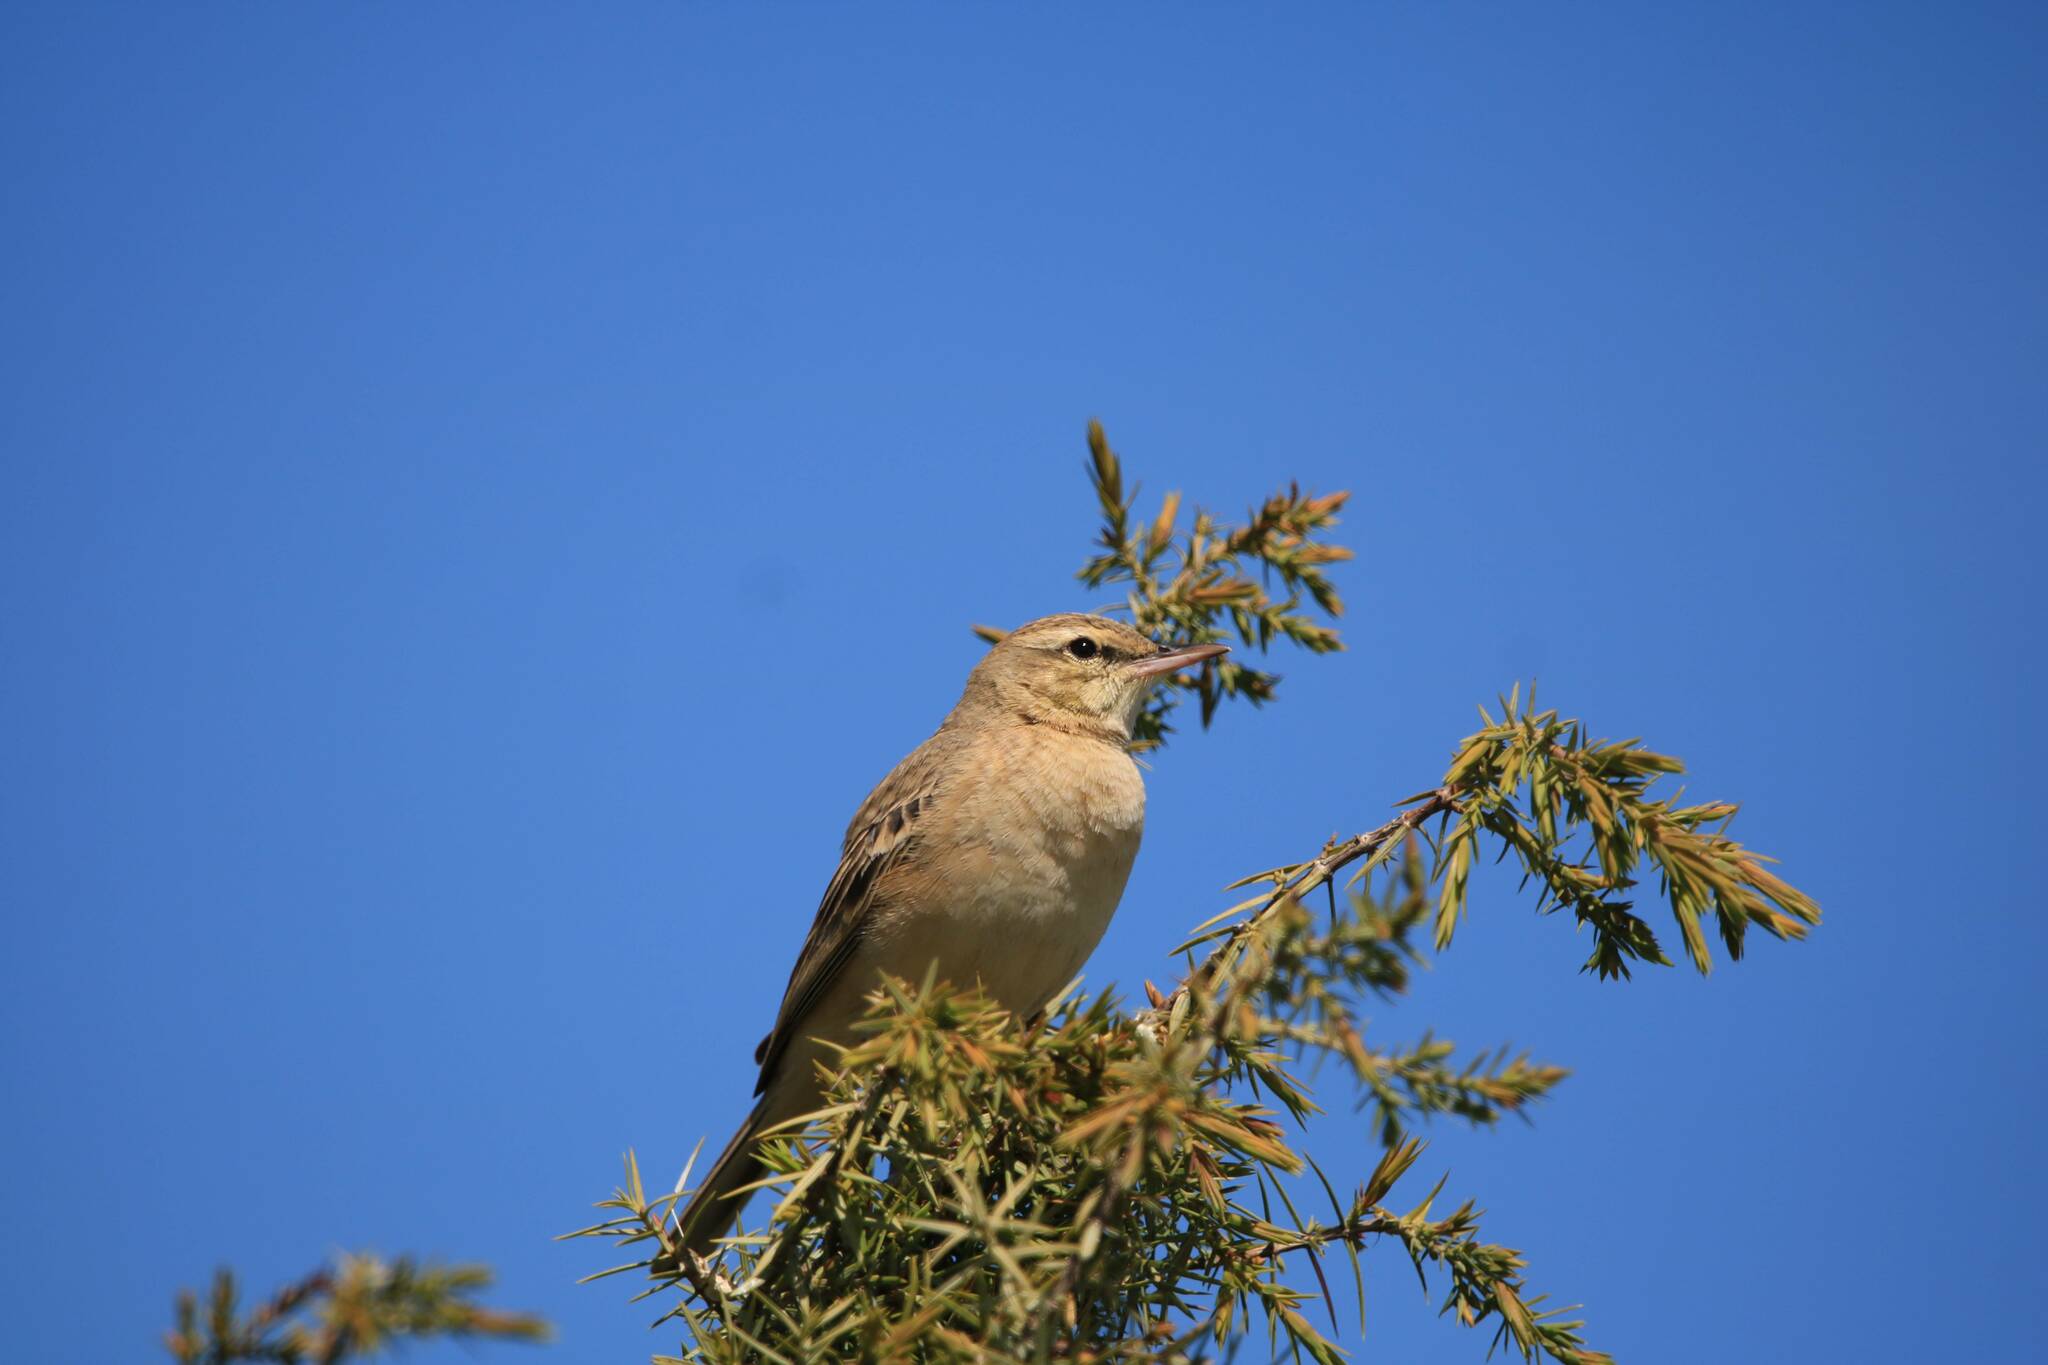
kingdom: Animalia
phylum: Chordata
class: Aves
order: Passeriformes
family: Motacillidae
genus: Anthus
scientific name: Anthus campestris
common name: Tawny pipit
